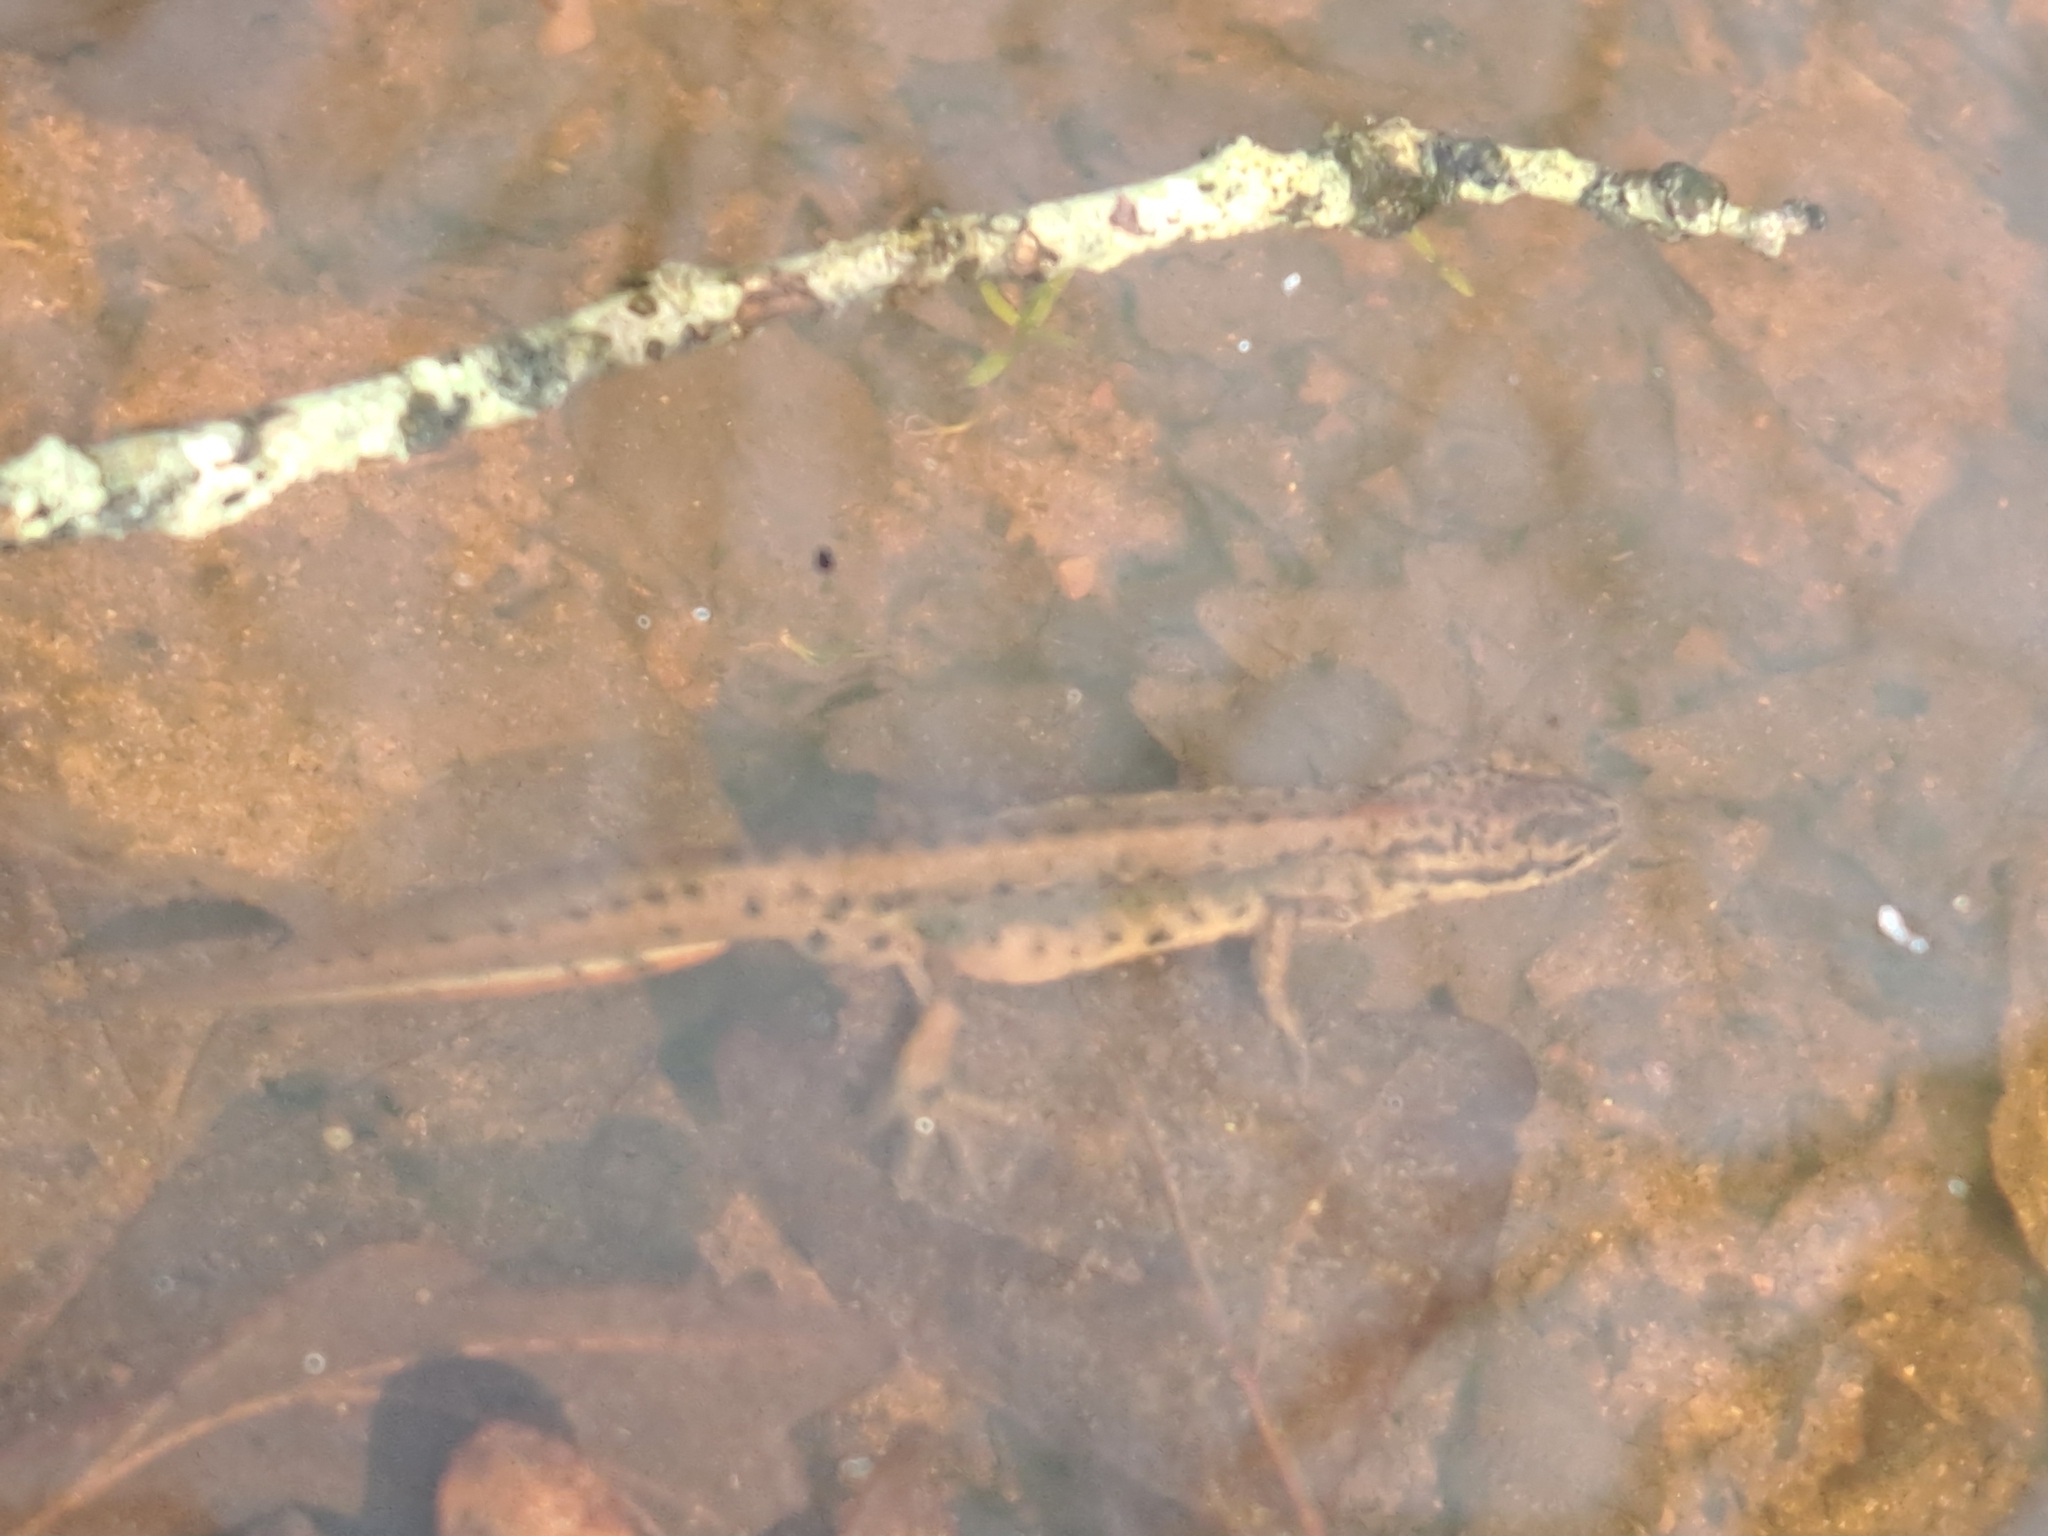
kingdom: Animalia
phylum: Chordata
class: Amphibia
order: Caudata
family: Salamandridae
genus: Lissotriton
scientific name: Lissotriton vulgaris
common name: Smooth newt
